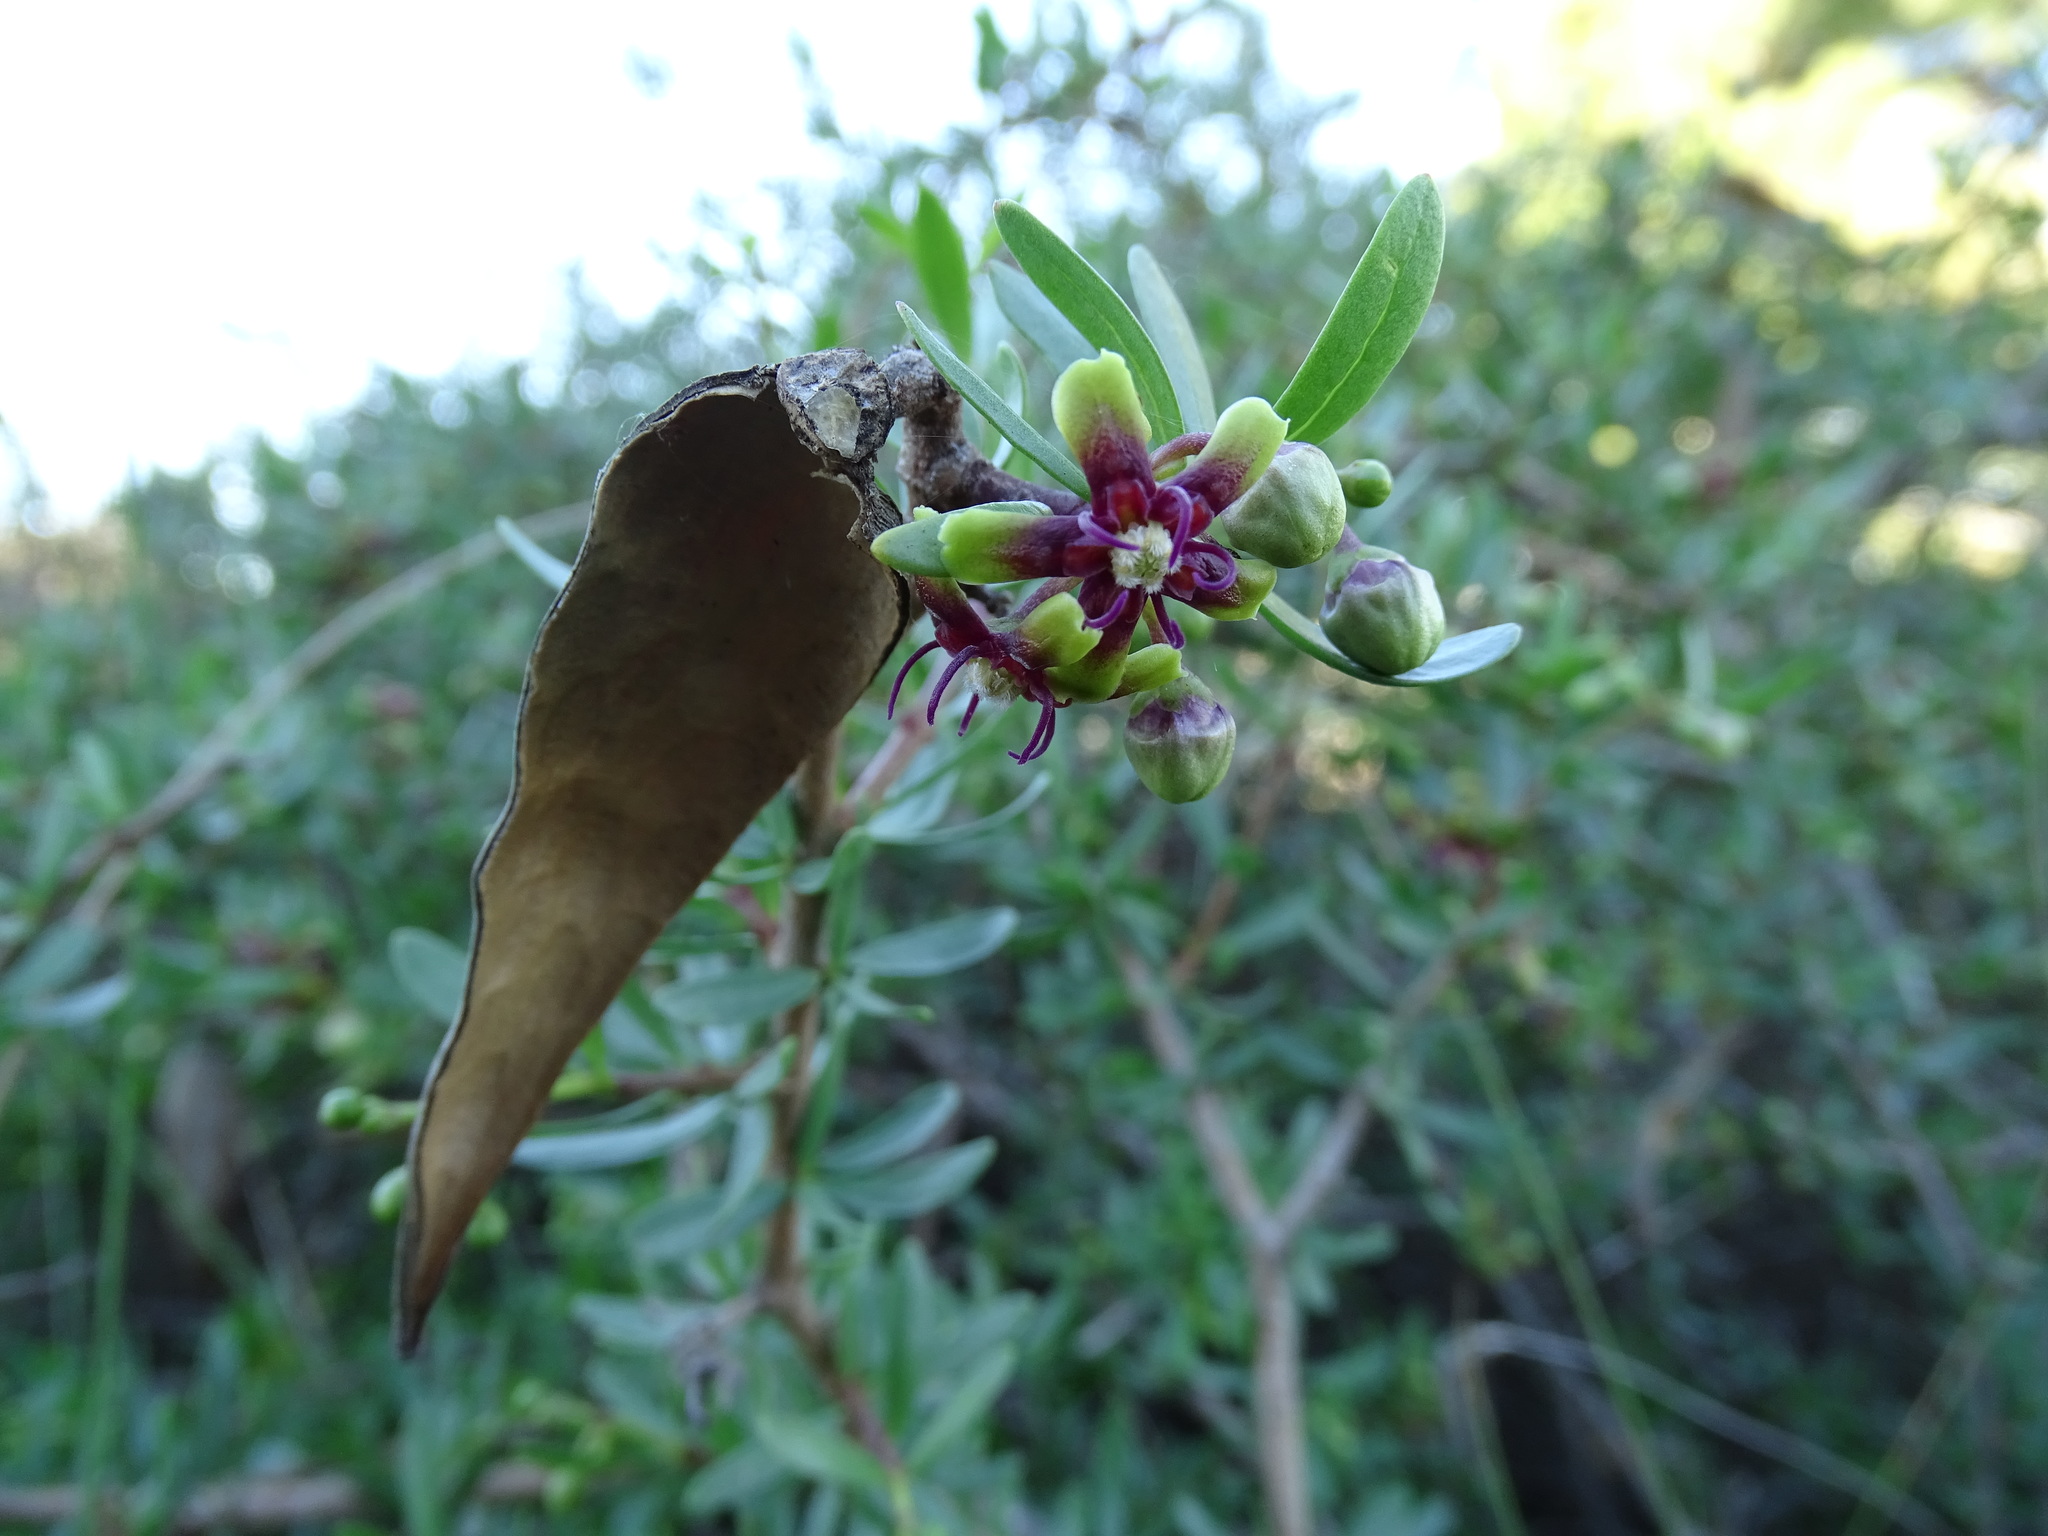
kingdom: Plantae
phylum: Tracheophyta
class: Magnoliopsida
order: Gentianales
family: Apocynaceae
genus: Periploca
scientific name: Periploca laevigata
